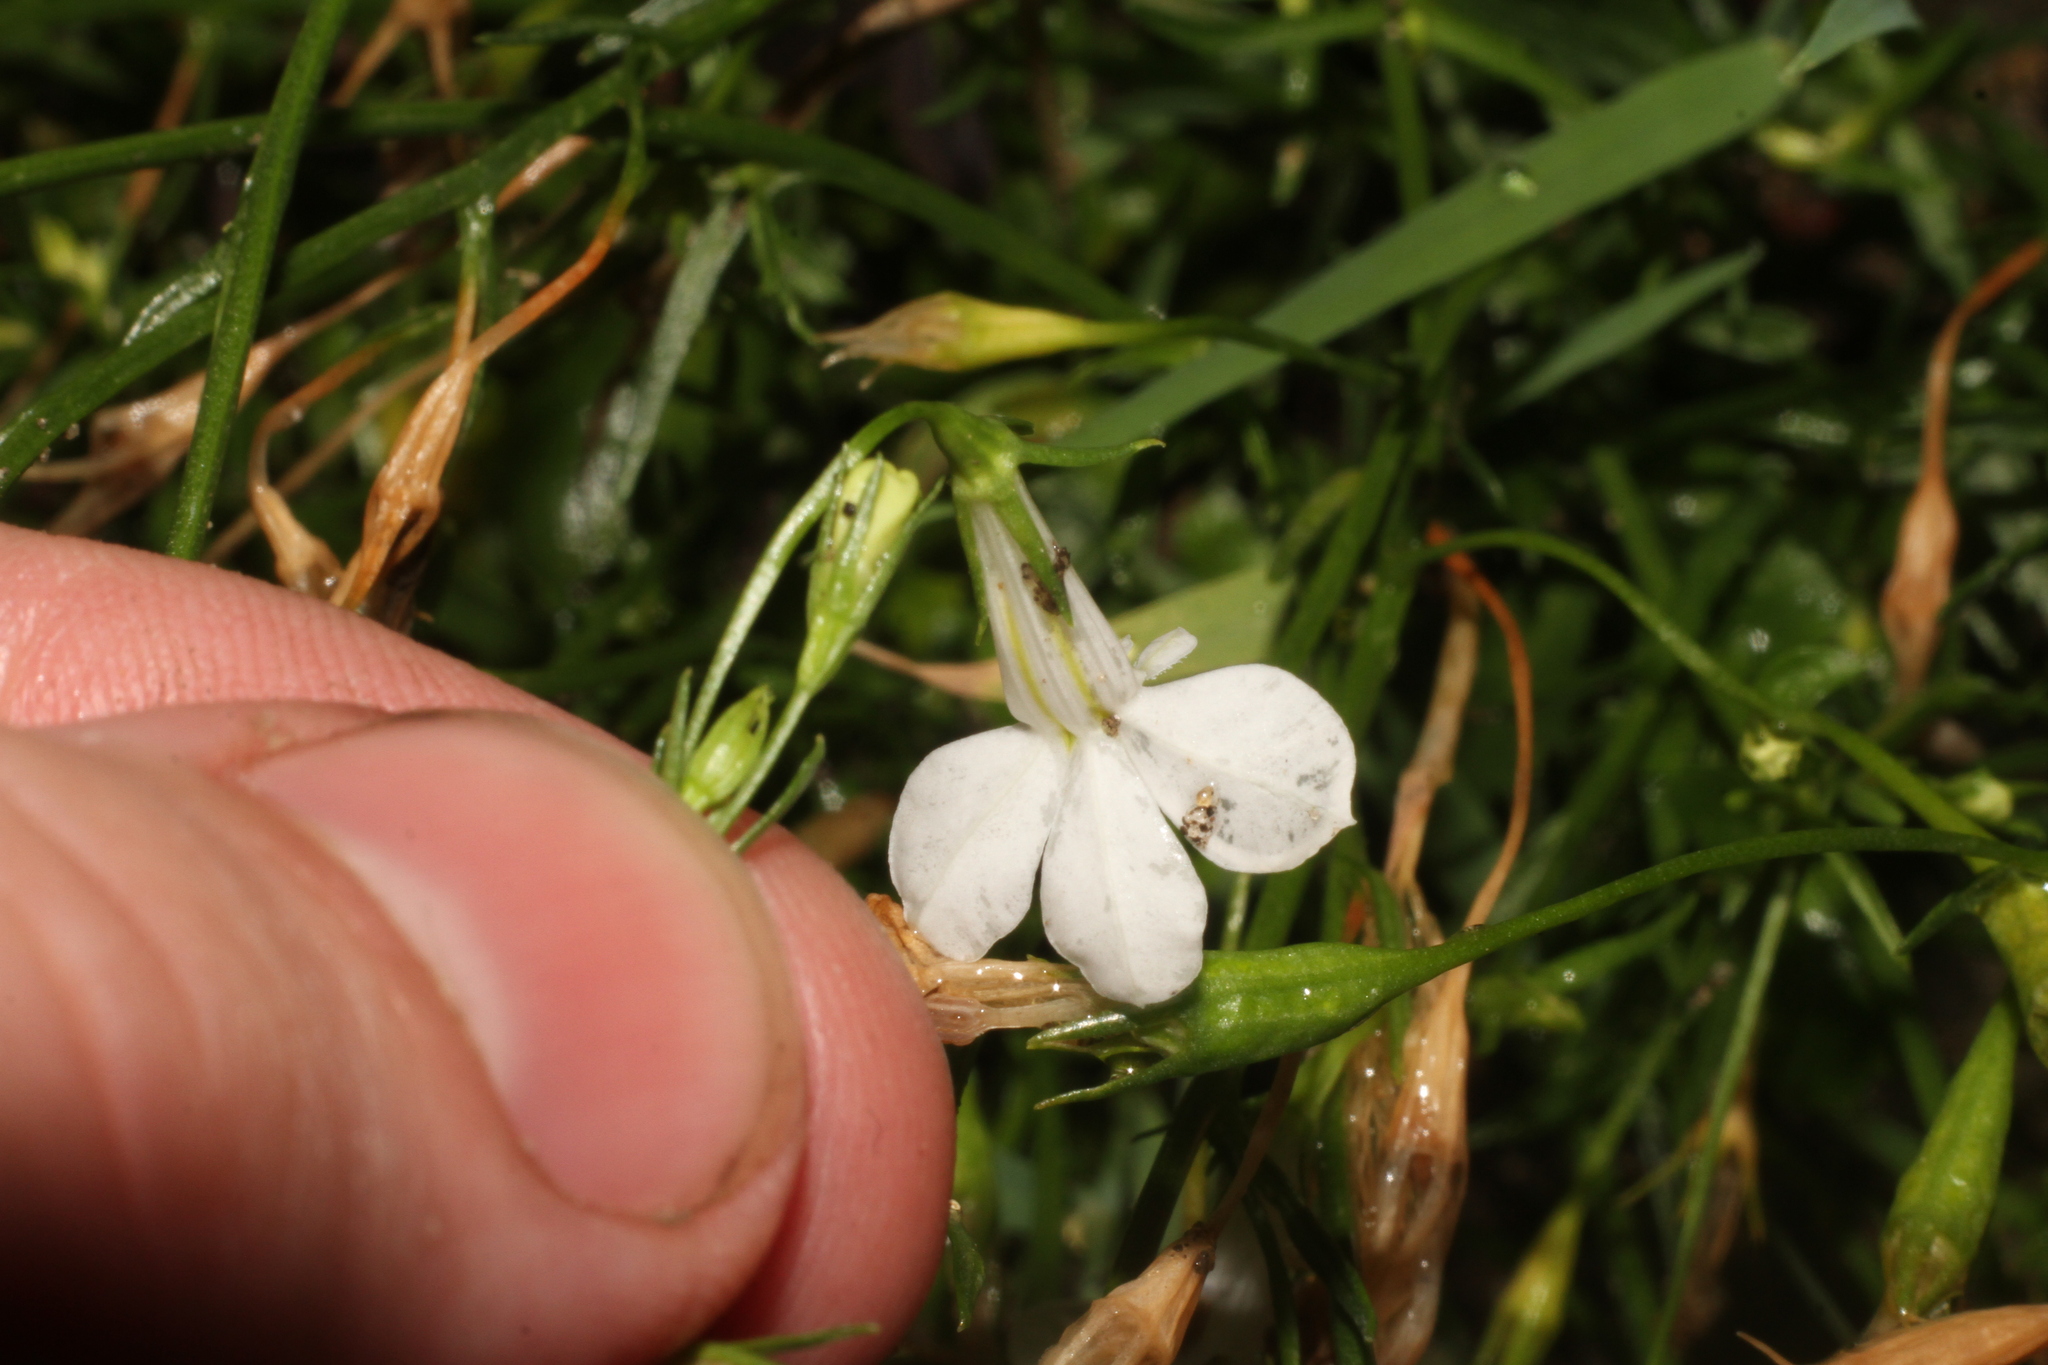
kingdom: Plantae
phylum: Tracheophyta
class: Magnoliopsida
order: Asterales
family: Campanulaceae
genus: Lobelia
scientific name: Lobelia erinus
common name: Edging lobelia
